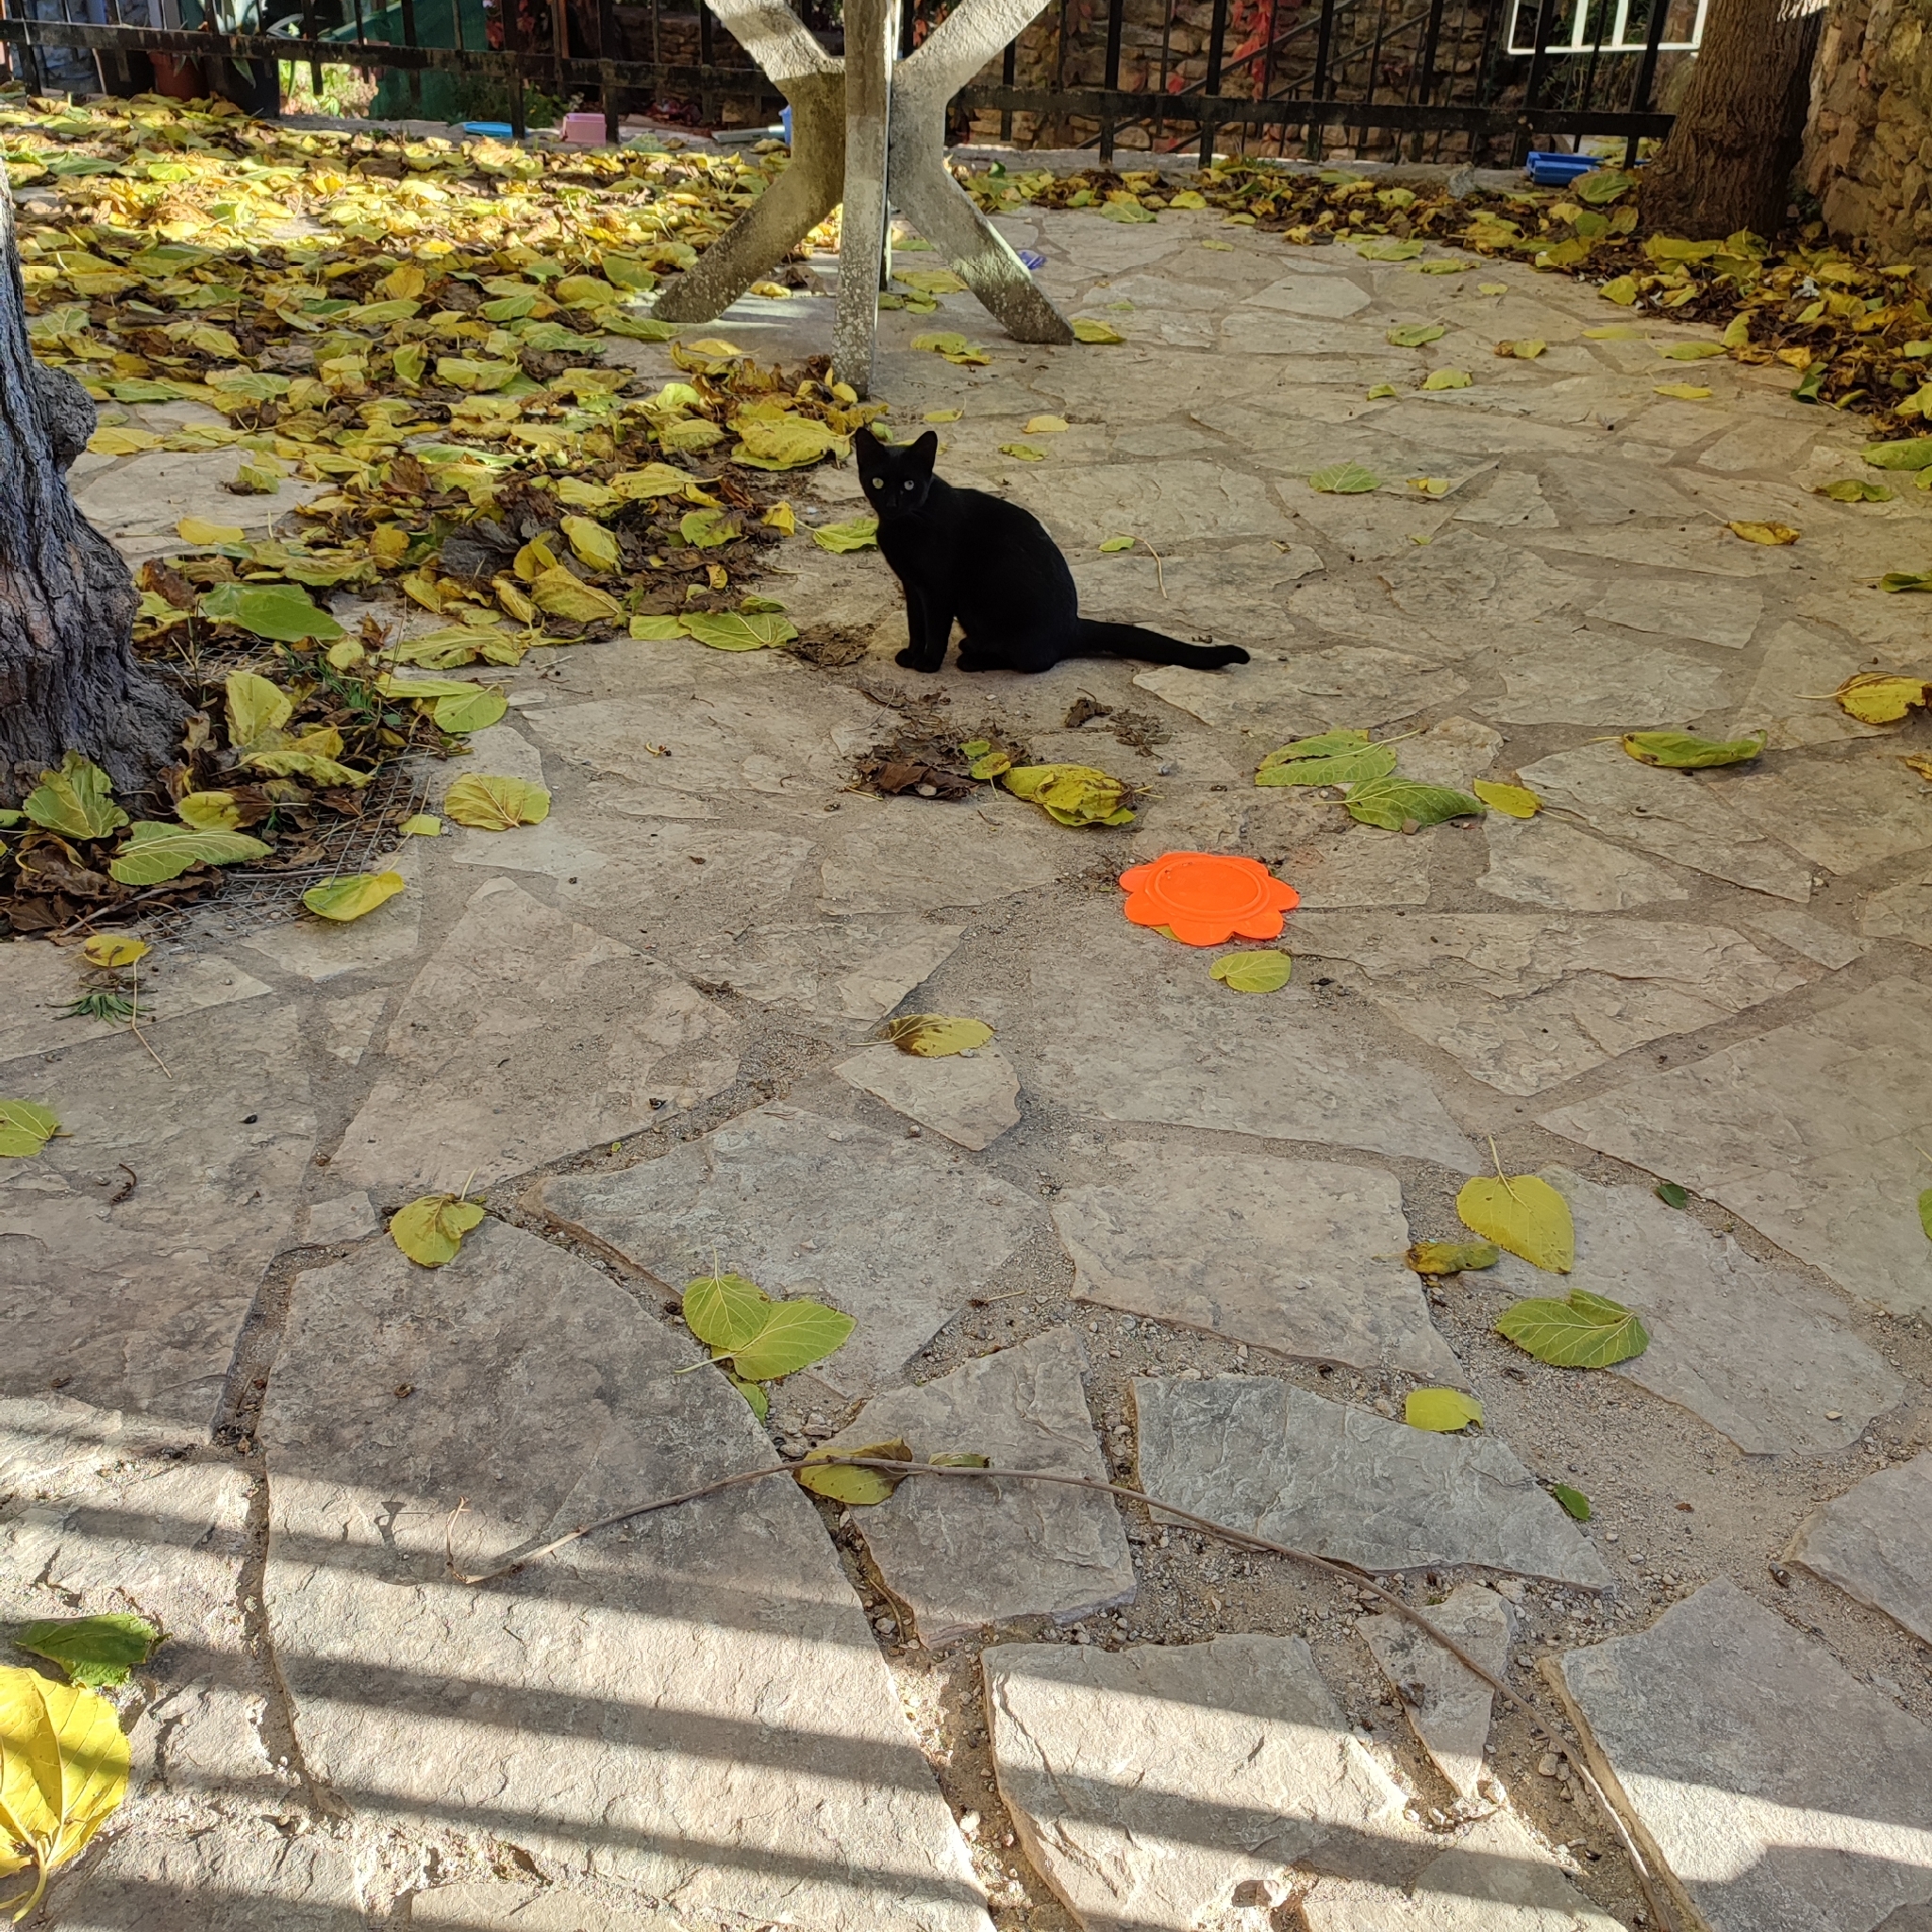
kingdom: Animalia
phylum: Chordata
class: Mammalia
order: Carnivora
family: Felidae
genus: Felis
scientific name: Felis catus
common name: Domestic cat
